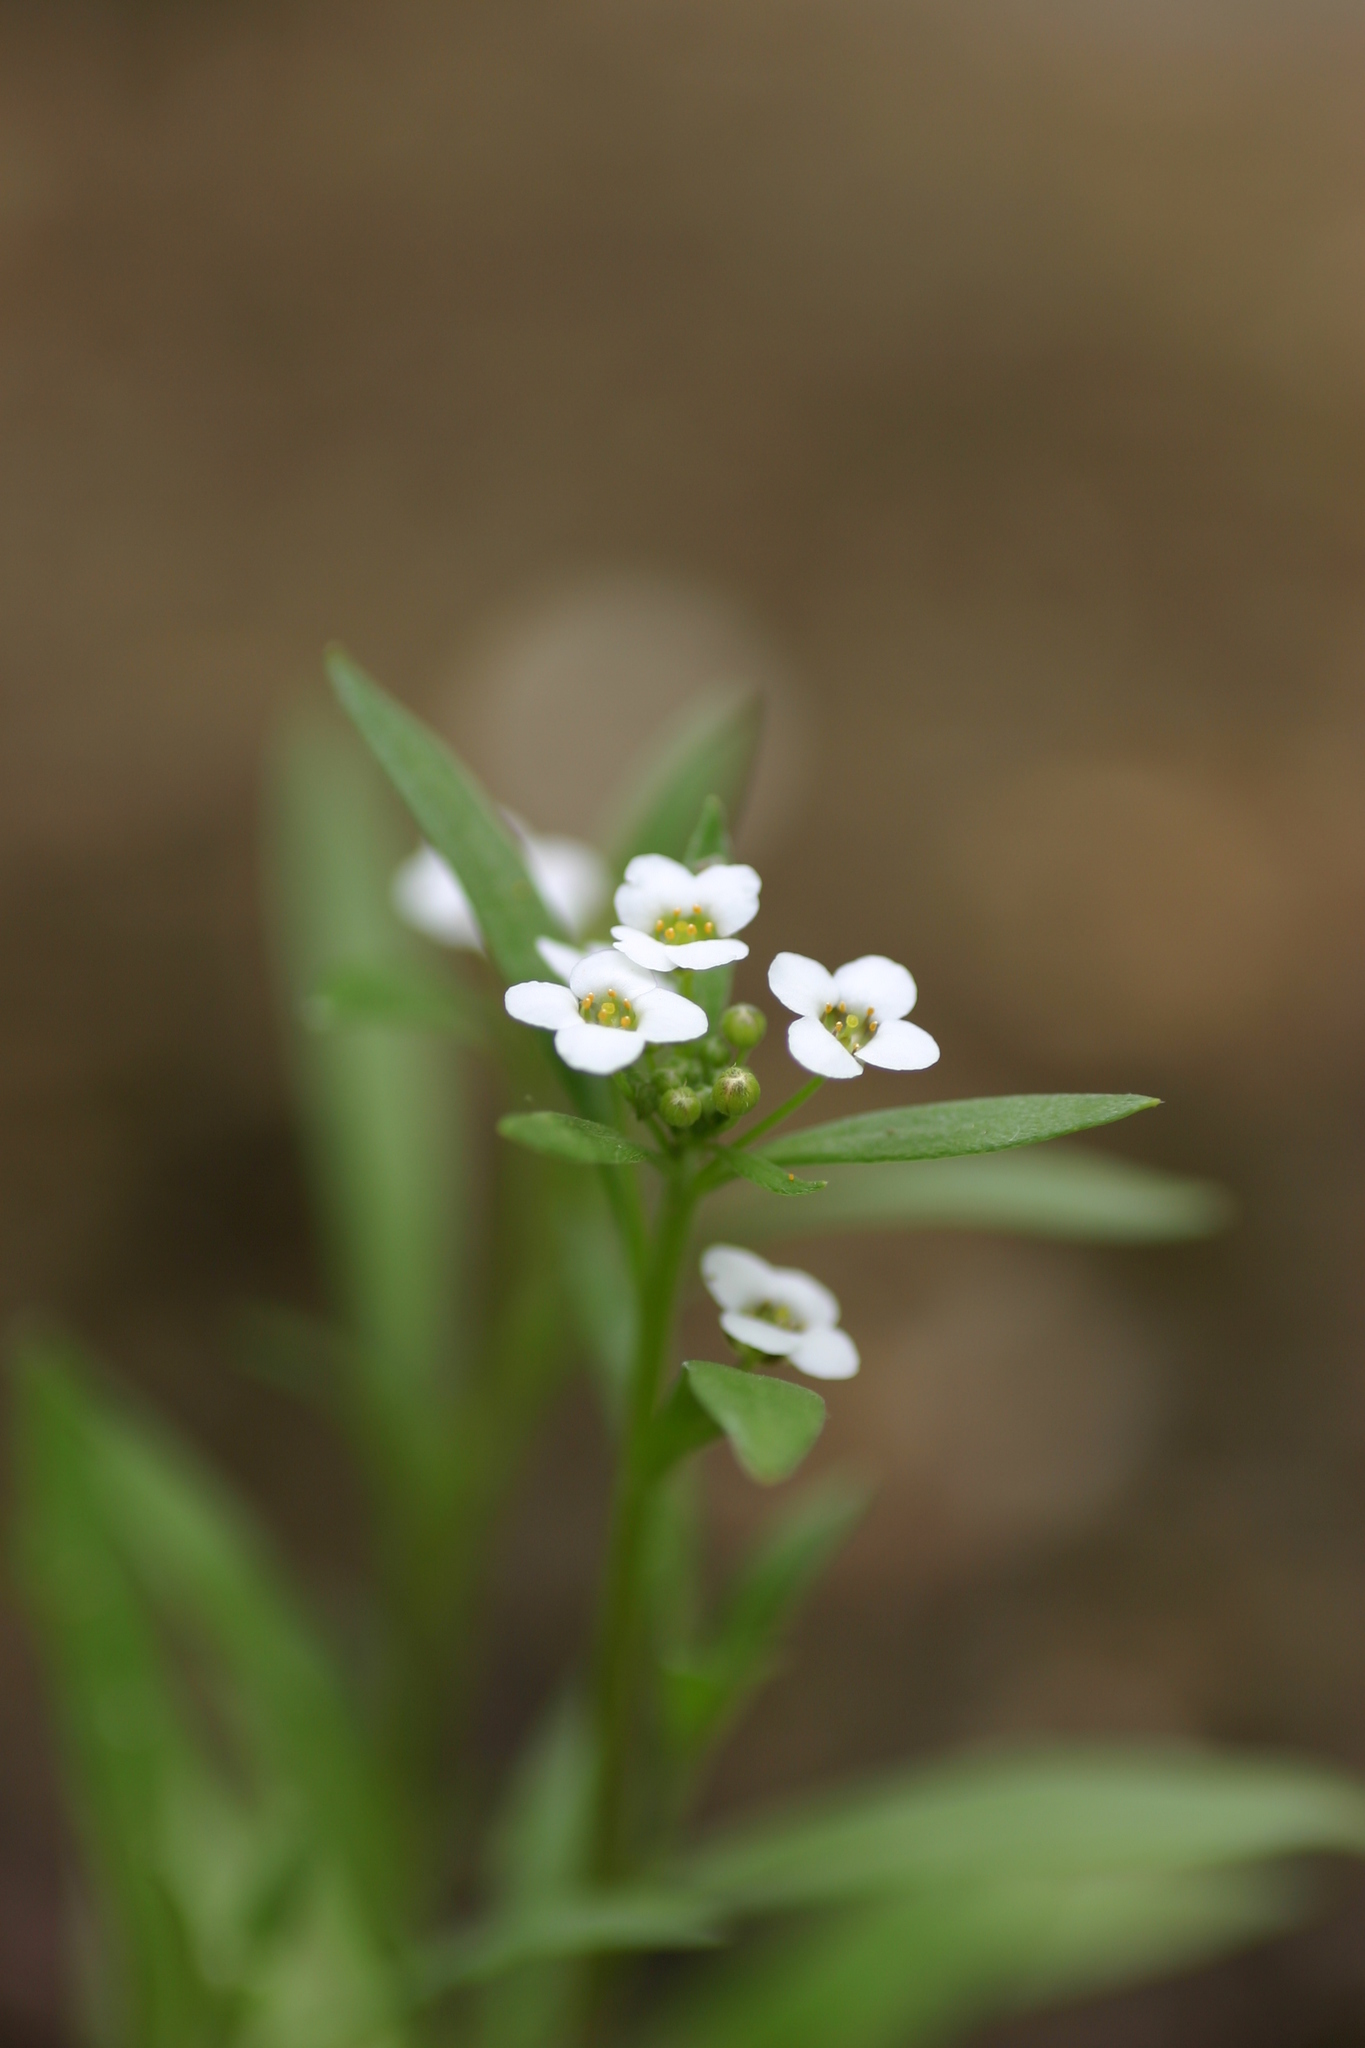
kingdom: Plantae
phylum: Tracheophyta
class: Magnoliopsida
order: Brassicales
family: Brassicaceae
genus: Lobularia
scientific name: Lobularia maritima
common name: Sweet alison
